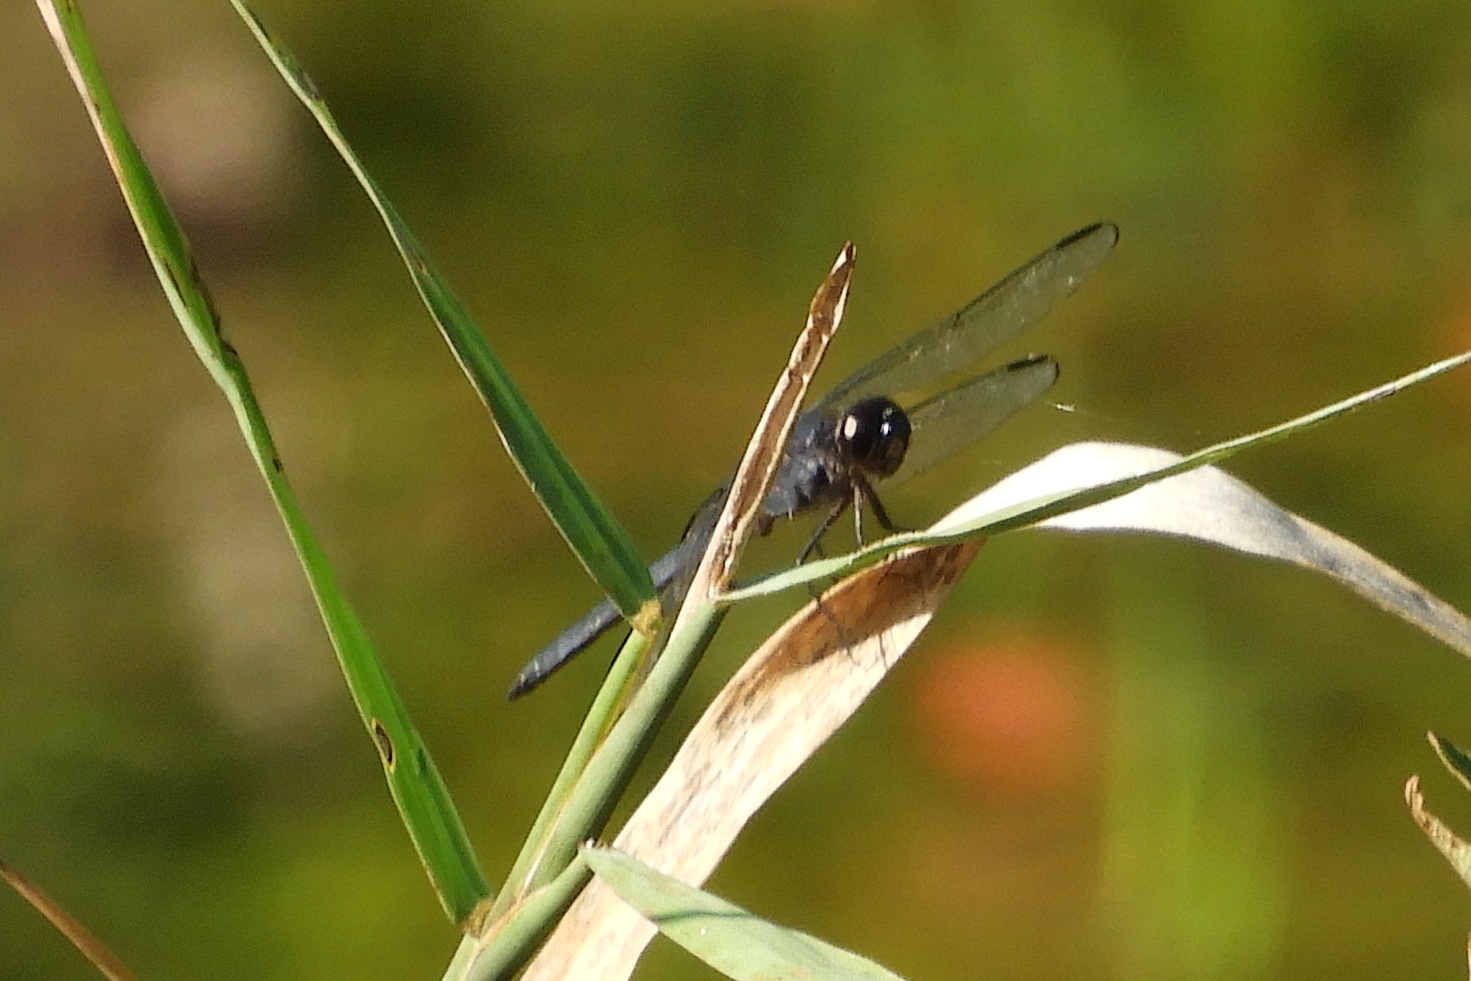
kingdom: Animalia
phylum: Arthropoda
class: Insecta
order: Odonata
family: Libellulidae
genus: Libellula
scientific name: Libellula incesta
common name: Slaty skimmer
